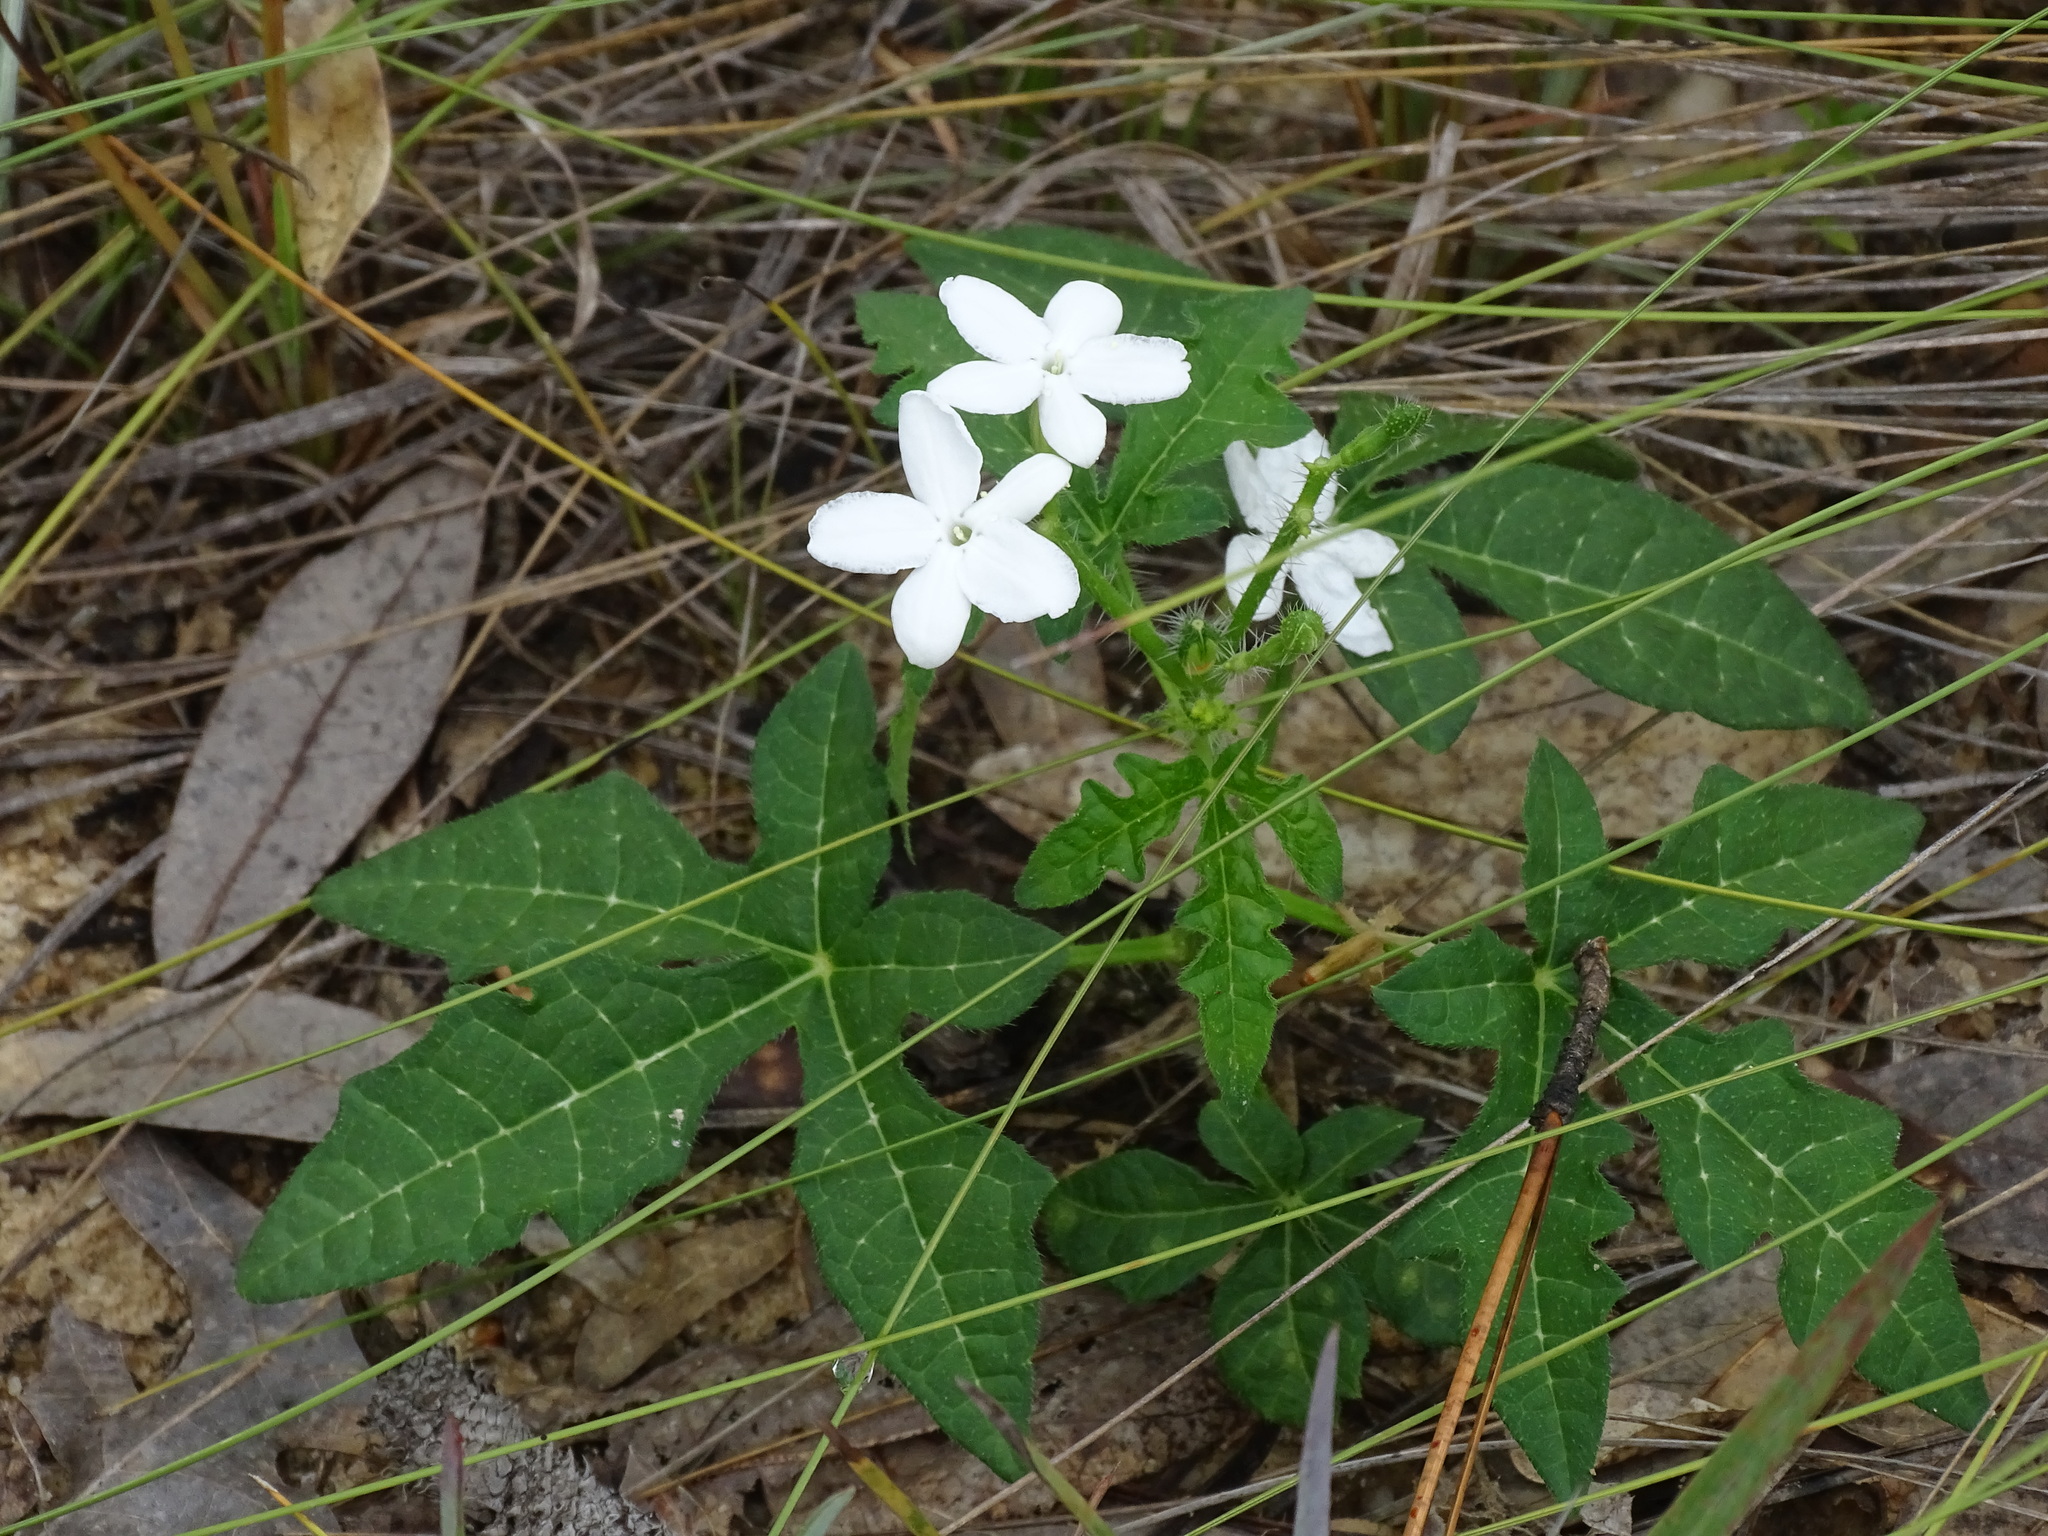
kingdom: Plantae
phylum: Tracheophyta
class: Magnoliopsida
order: Malpighiales
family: Euphorbiaceae
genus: Cnidoscolus
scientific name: Cnidoscolus stimulosus
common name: Bull-nettle
